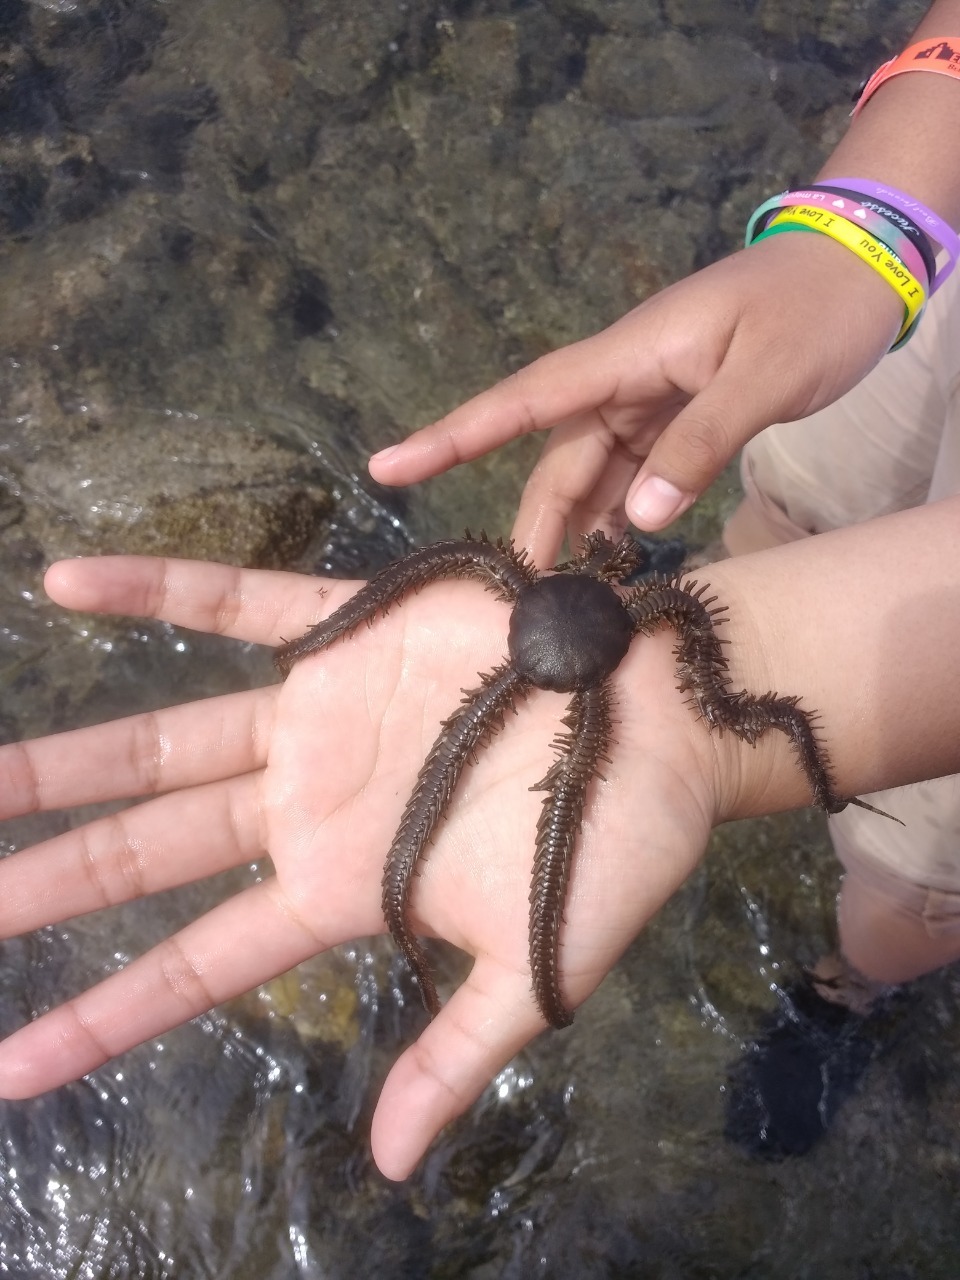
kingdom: Animalia
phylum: Echinodermata
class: Ophiuroidea
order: Ophiacanthida
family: Ophiocomidae
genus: Ophiocoma
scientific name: Ophiocoma aethiops
